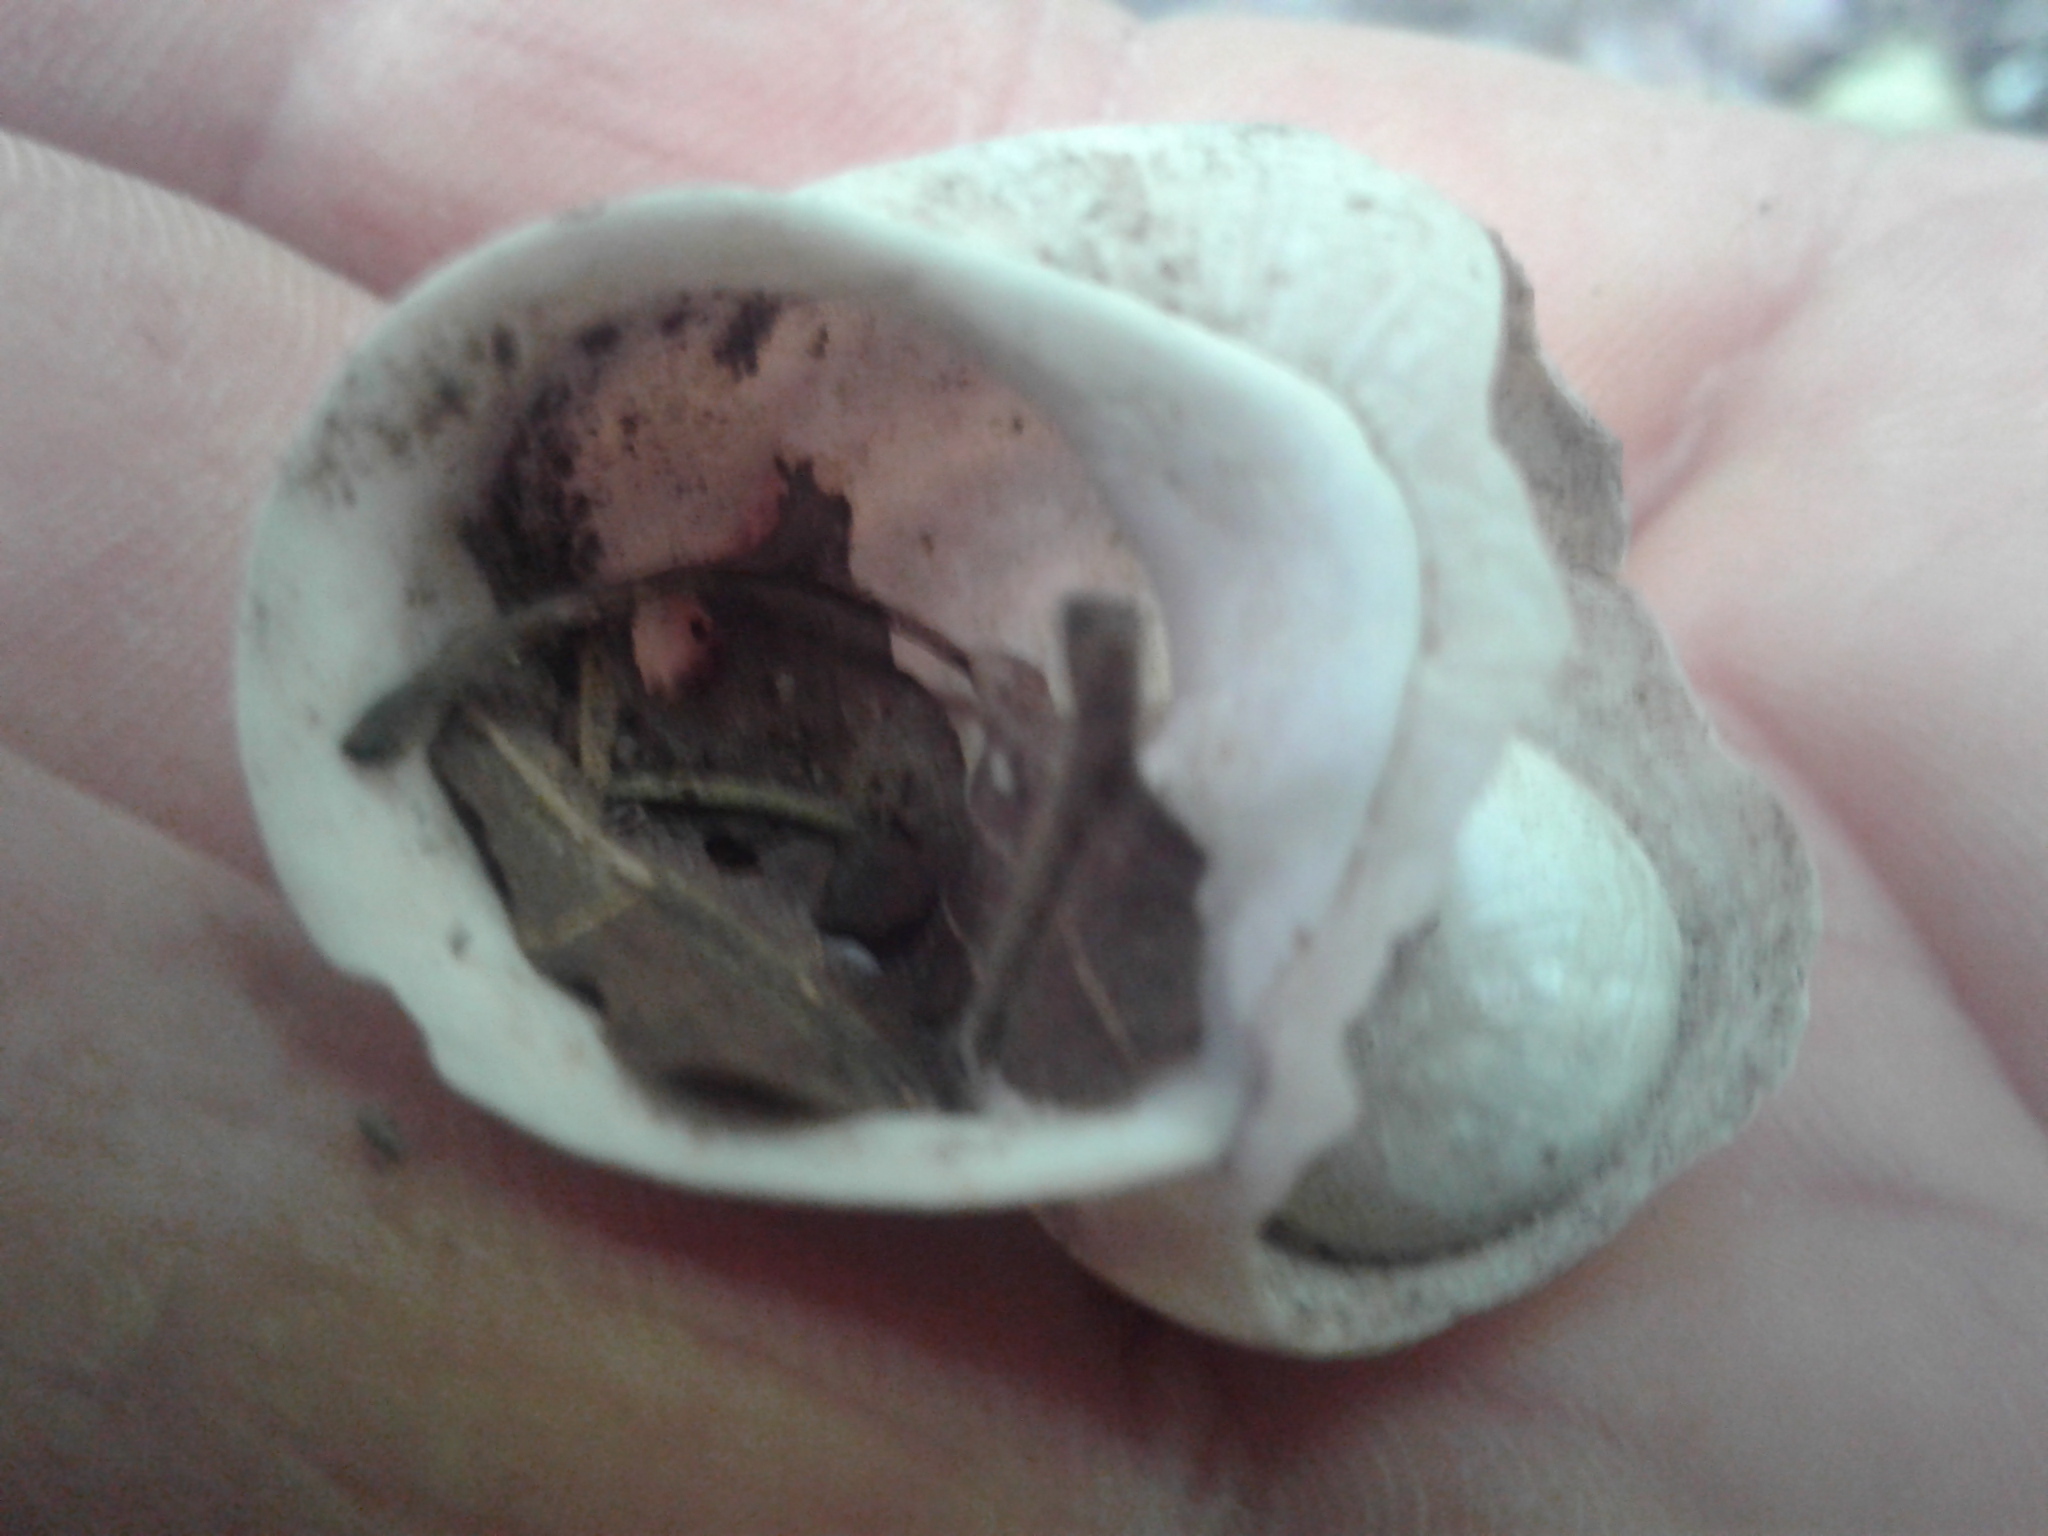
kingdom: Animalia
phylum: Mollusca
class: Gastropoda
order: Stylommatophora
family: Helicidae
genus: Cornu
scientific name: Cornu aspersum
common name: Brown garden snail
